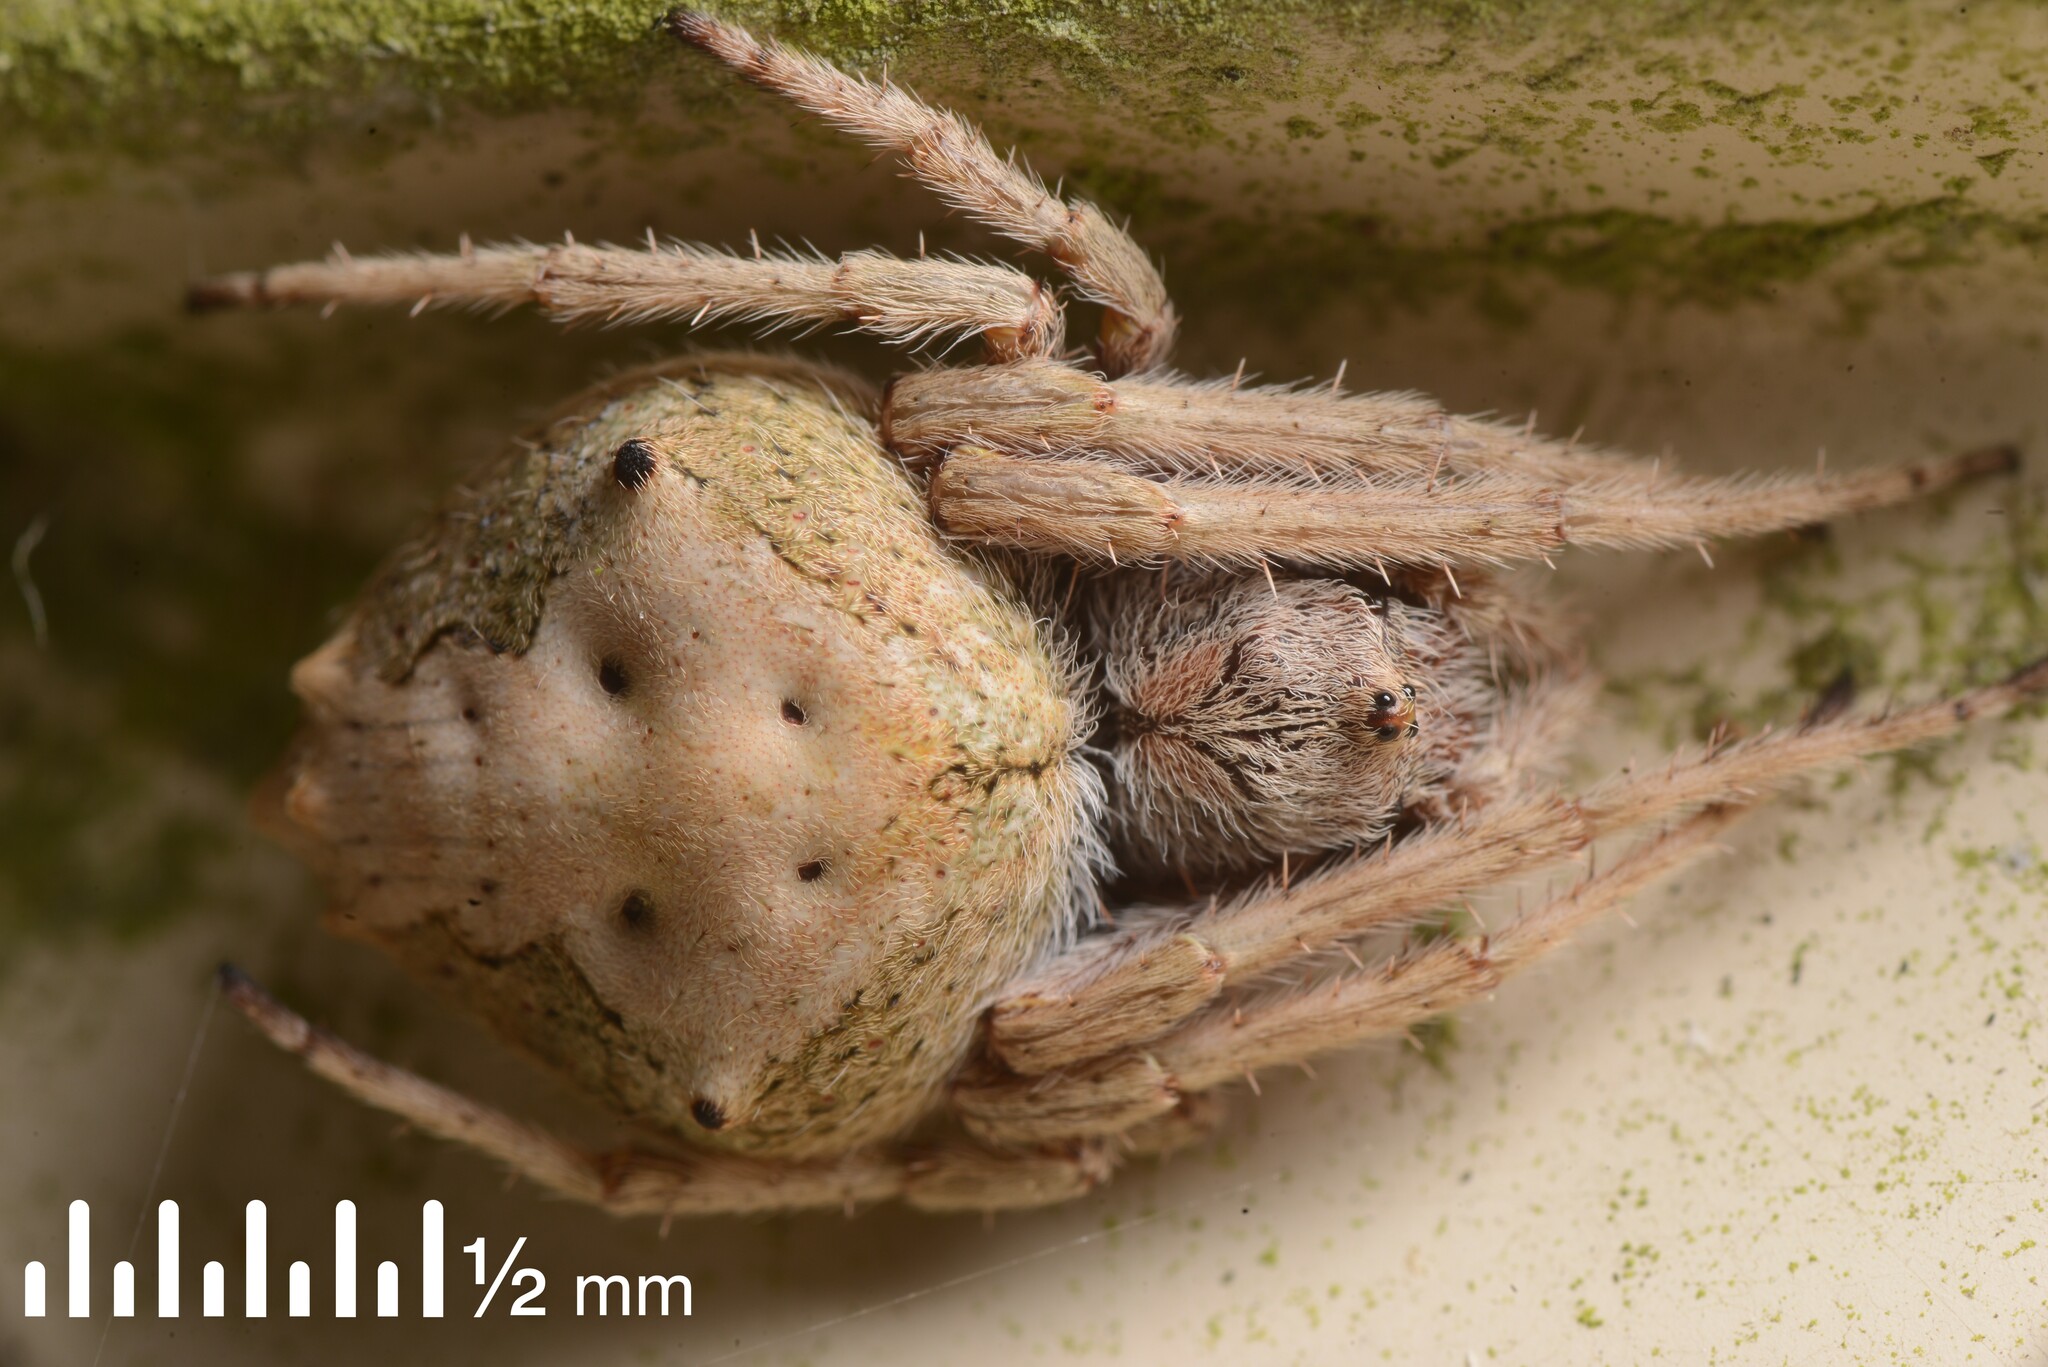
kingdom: Animalia
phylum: Arthropoda
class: Arachnida
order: Araneae
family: Araneidae
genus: Eriophora
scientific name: Eriophora pustulosa
